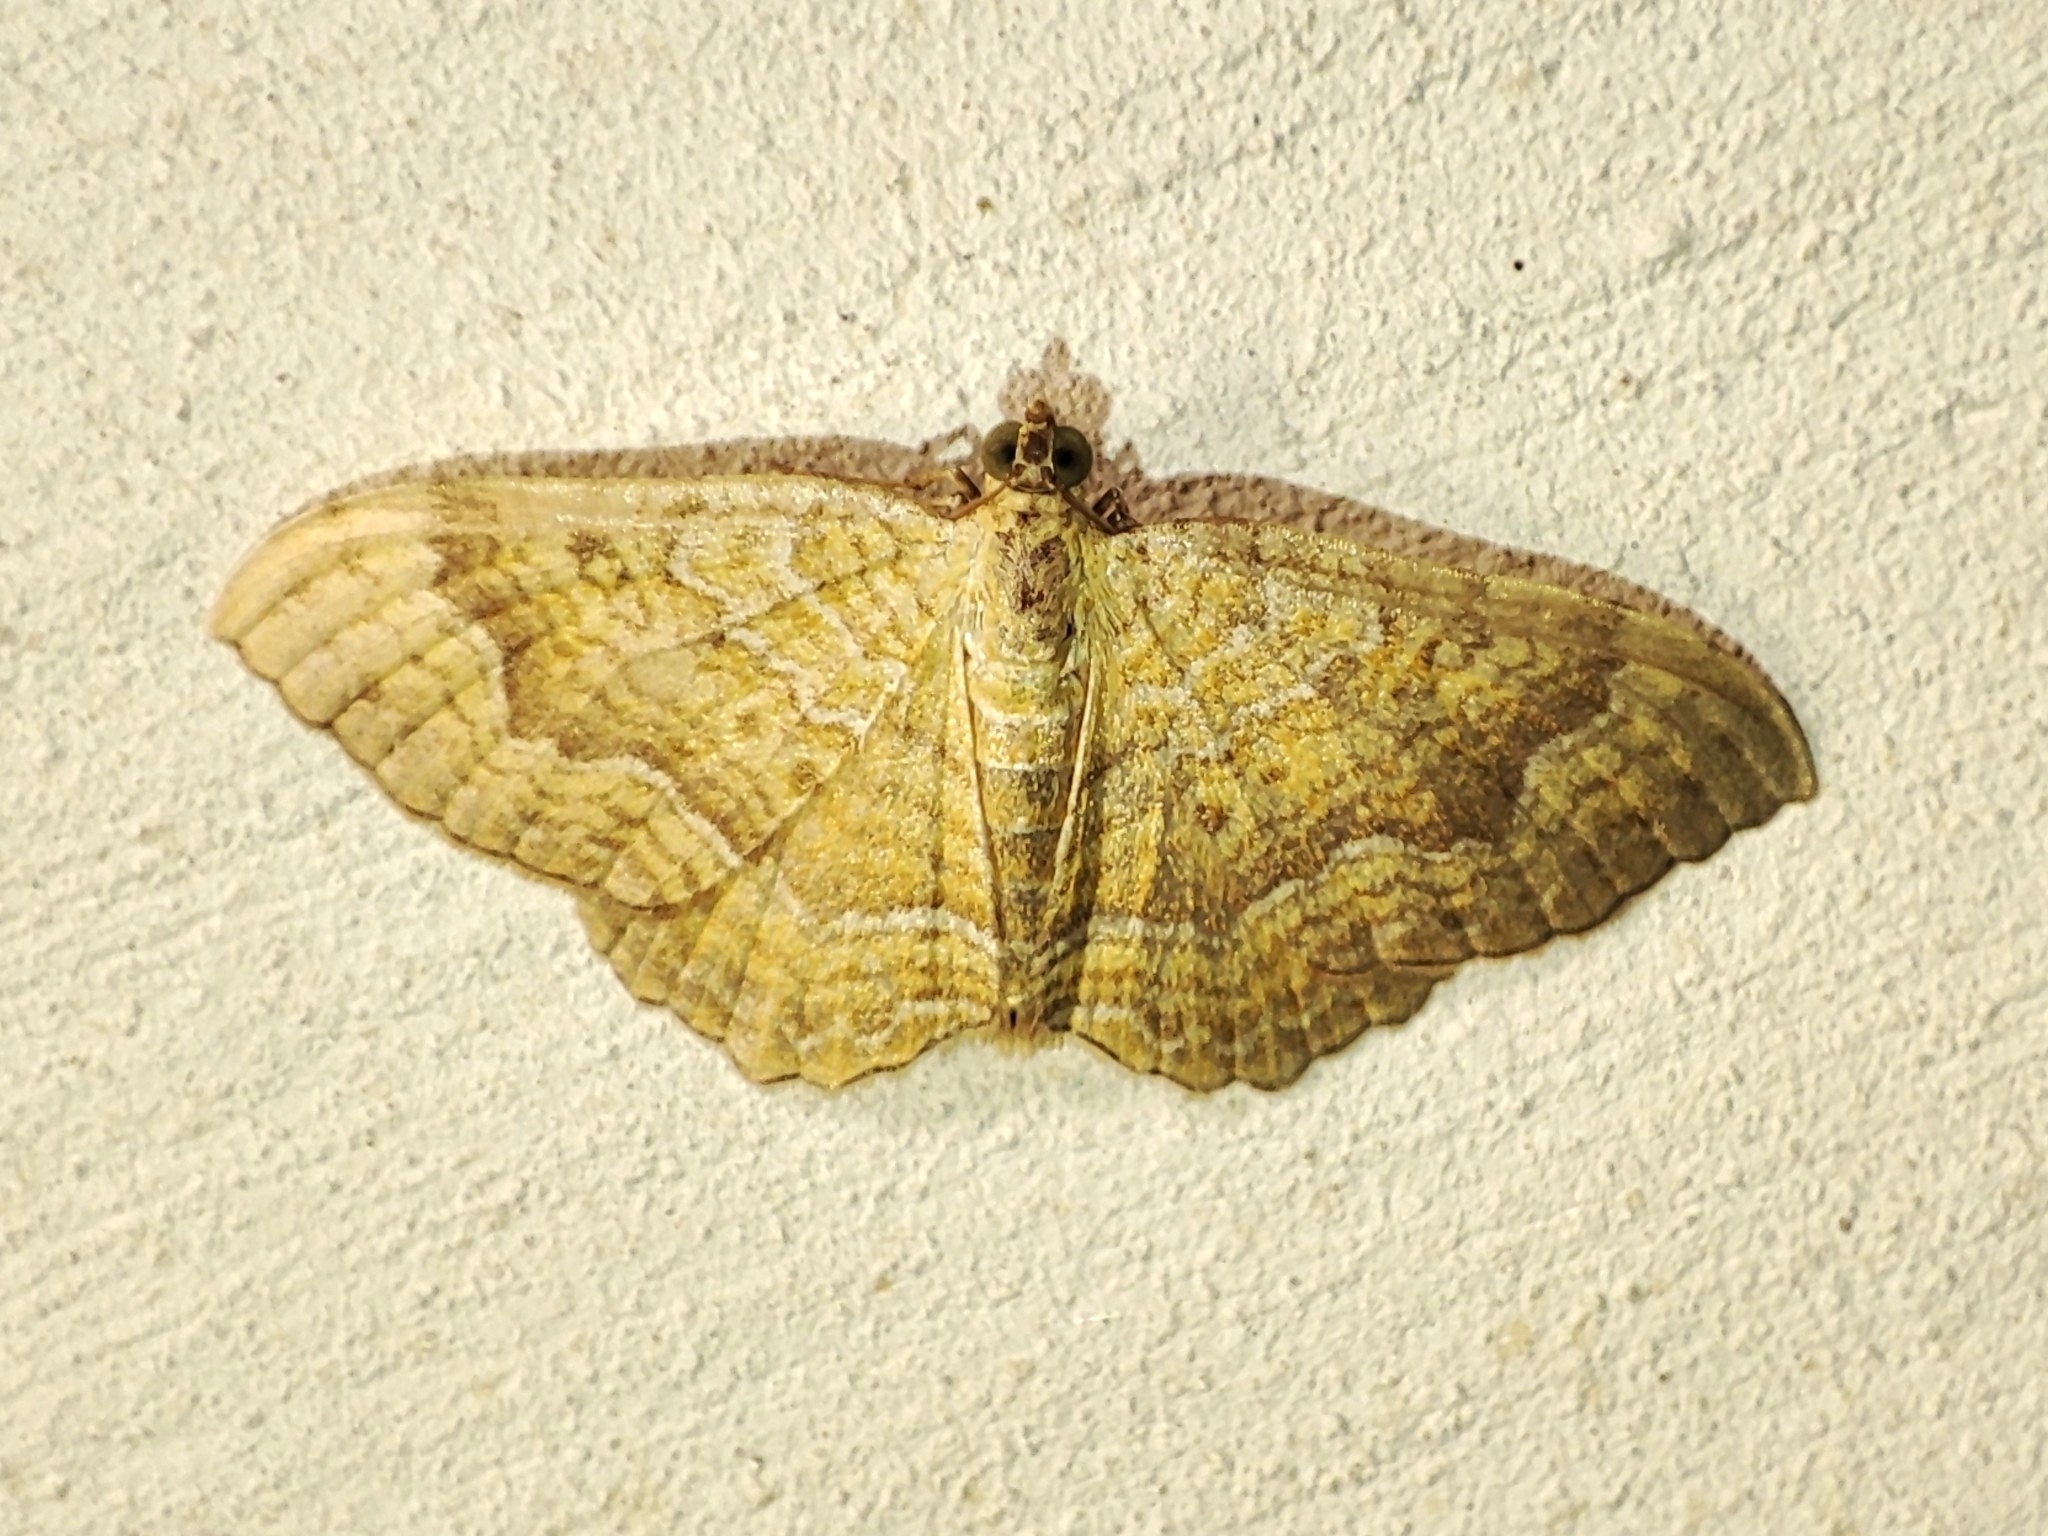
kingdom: Animalia
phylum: Arthropoda
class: Insecta
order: Lepidoptera
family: Geometridae
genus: Camptogramma
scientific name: Camptogramma bilineata
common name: Yellow shell
